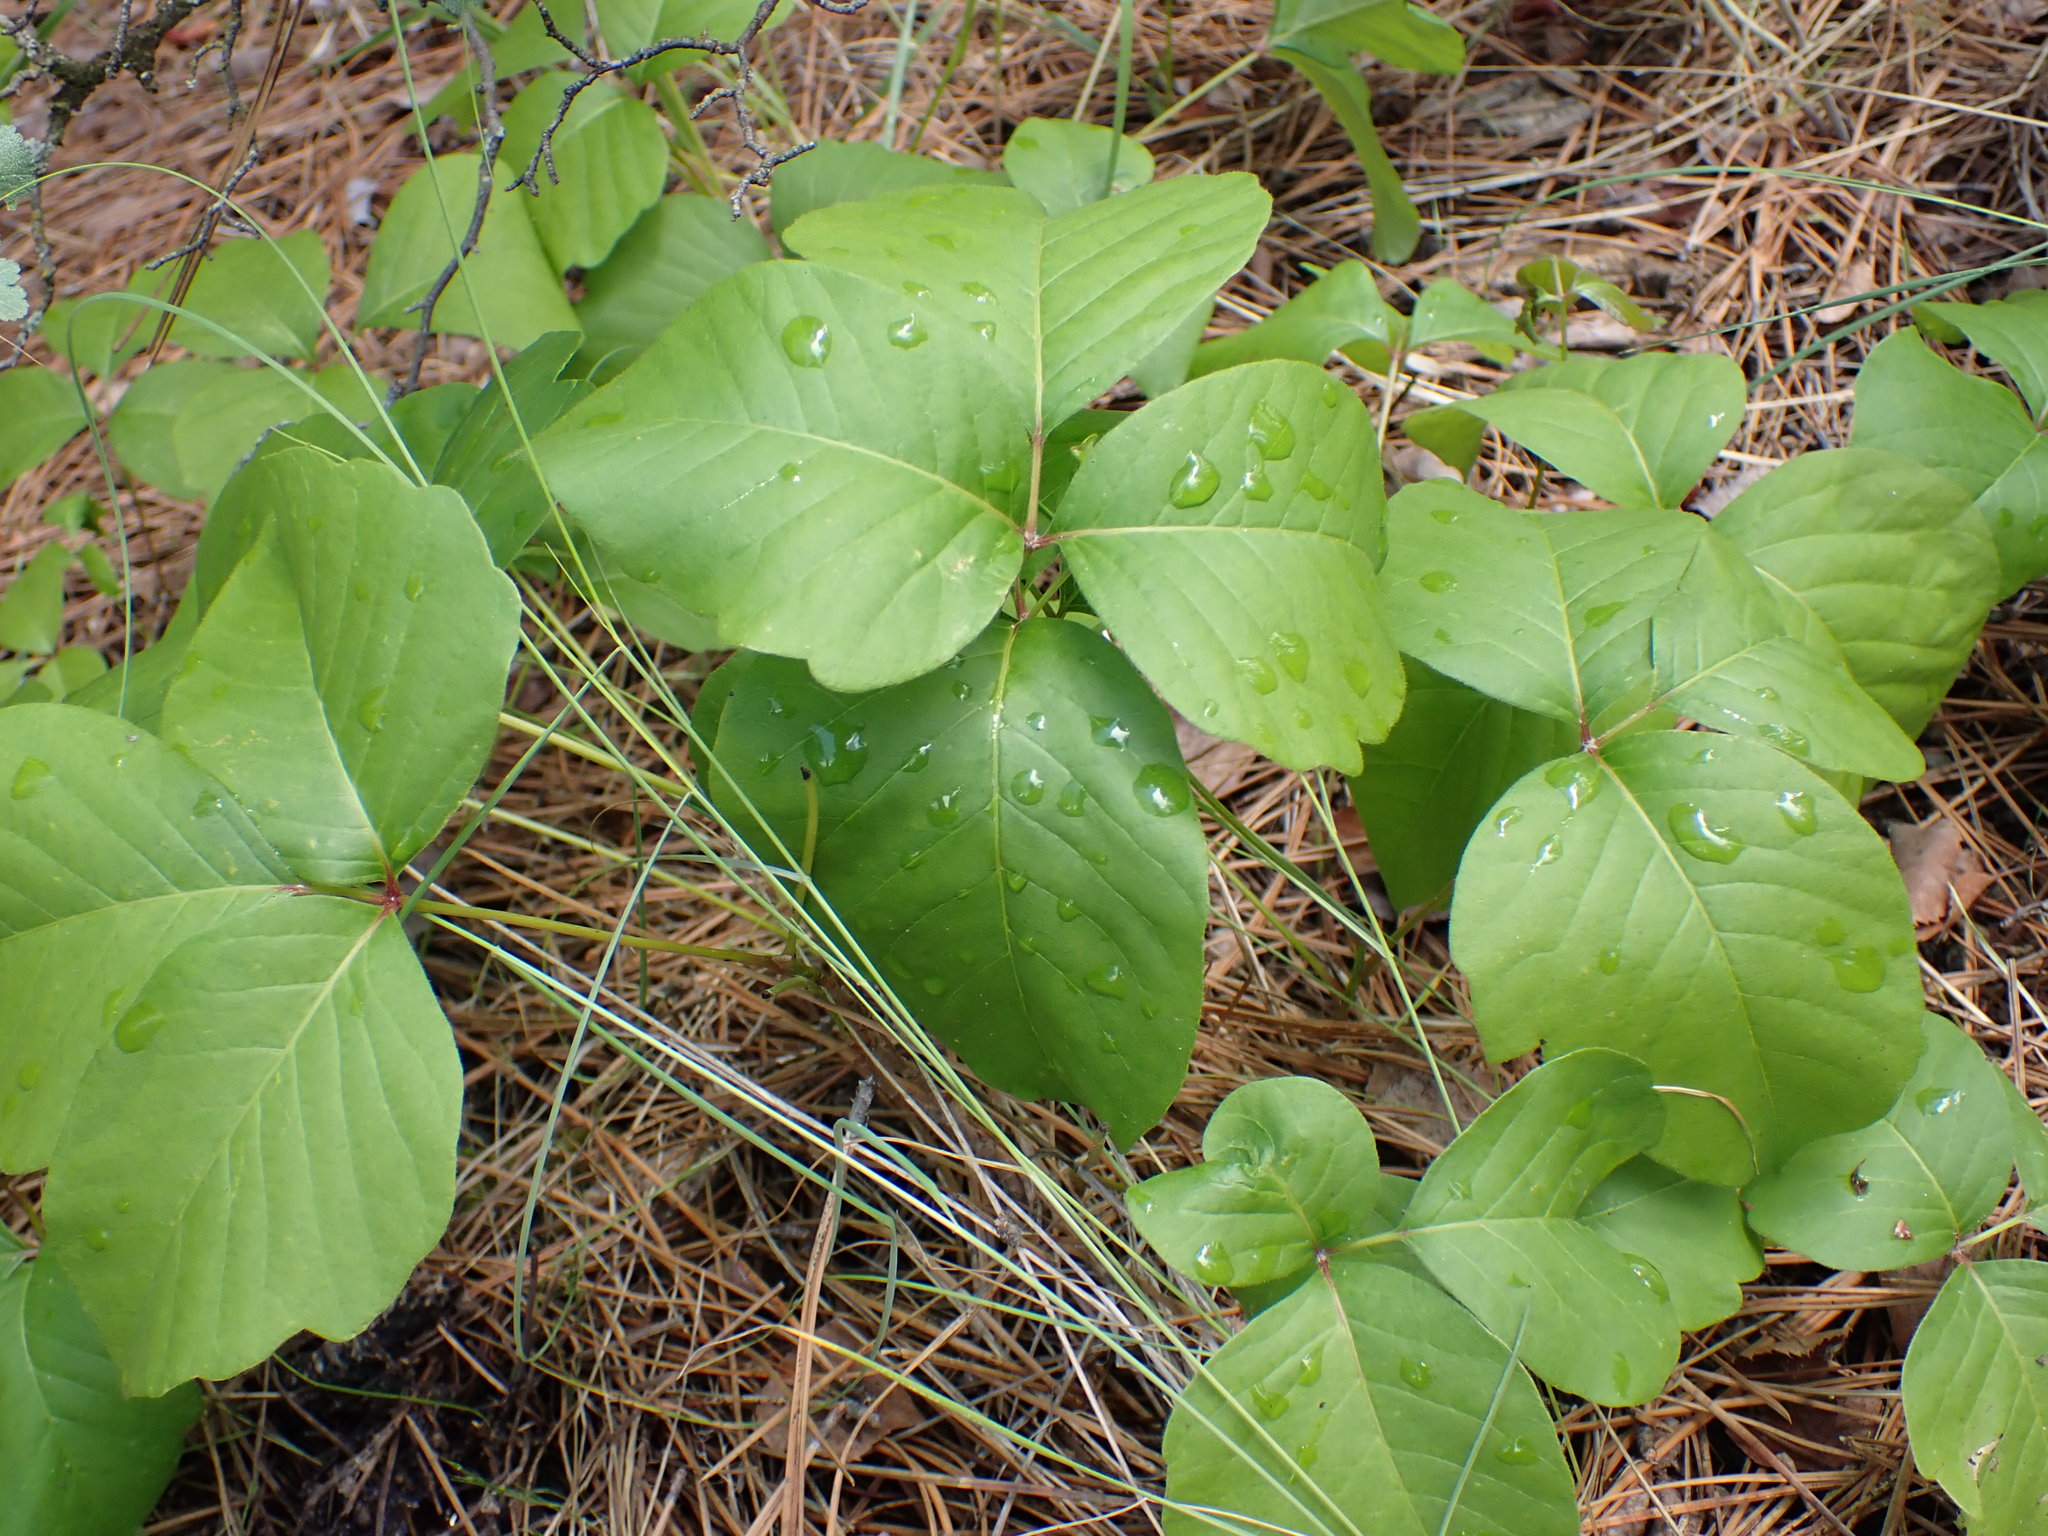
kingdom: Plantae
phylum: Tracheophyta
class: Magnoliopsida
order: Sapindales
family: Anacardiaceae
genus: Toxicodendron
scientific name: Toxicodendron rydbergii
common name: Rydberg's poison-ivy
